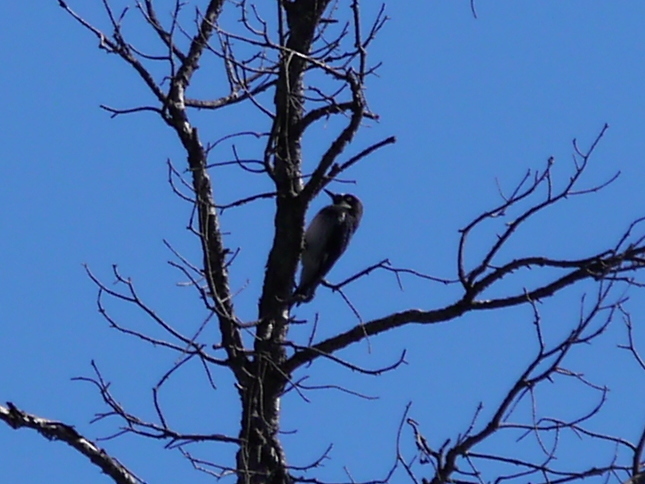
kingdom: Animalia
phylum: Chordata
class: Aves
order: Piciformes
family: Picidae
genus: Melanerpes
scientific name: Melanerpes formicivorus
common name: Acorn woodpecker
